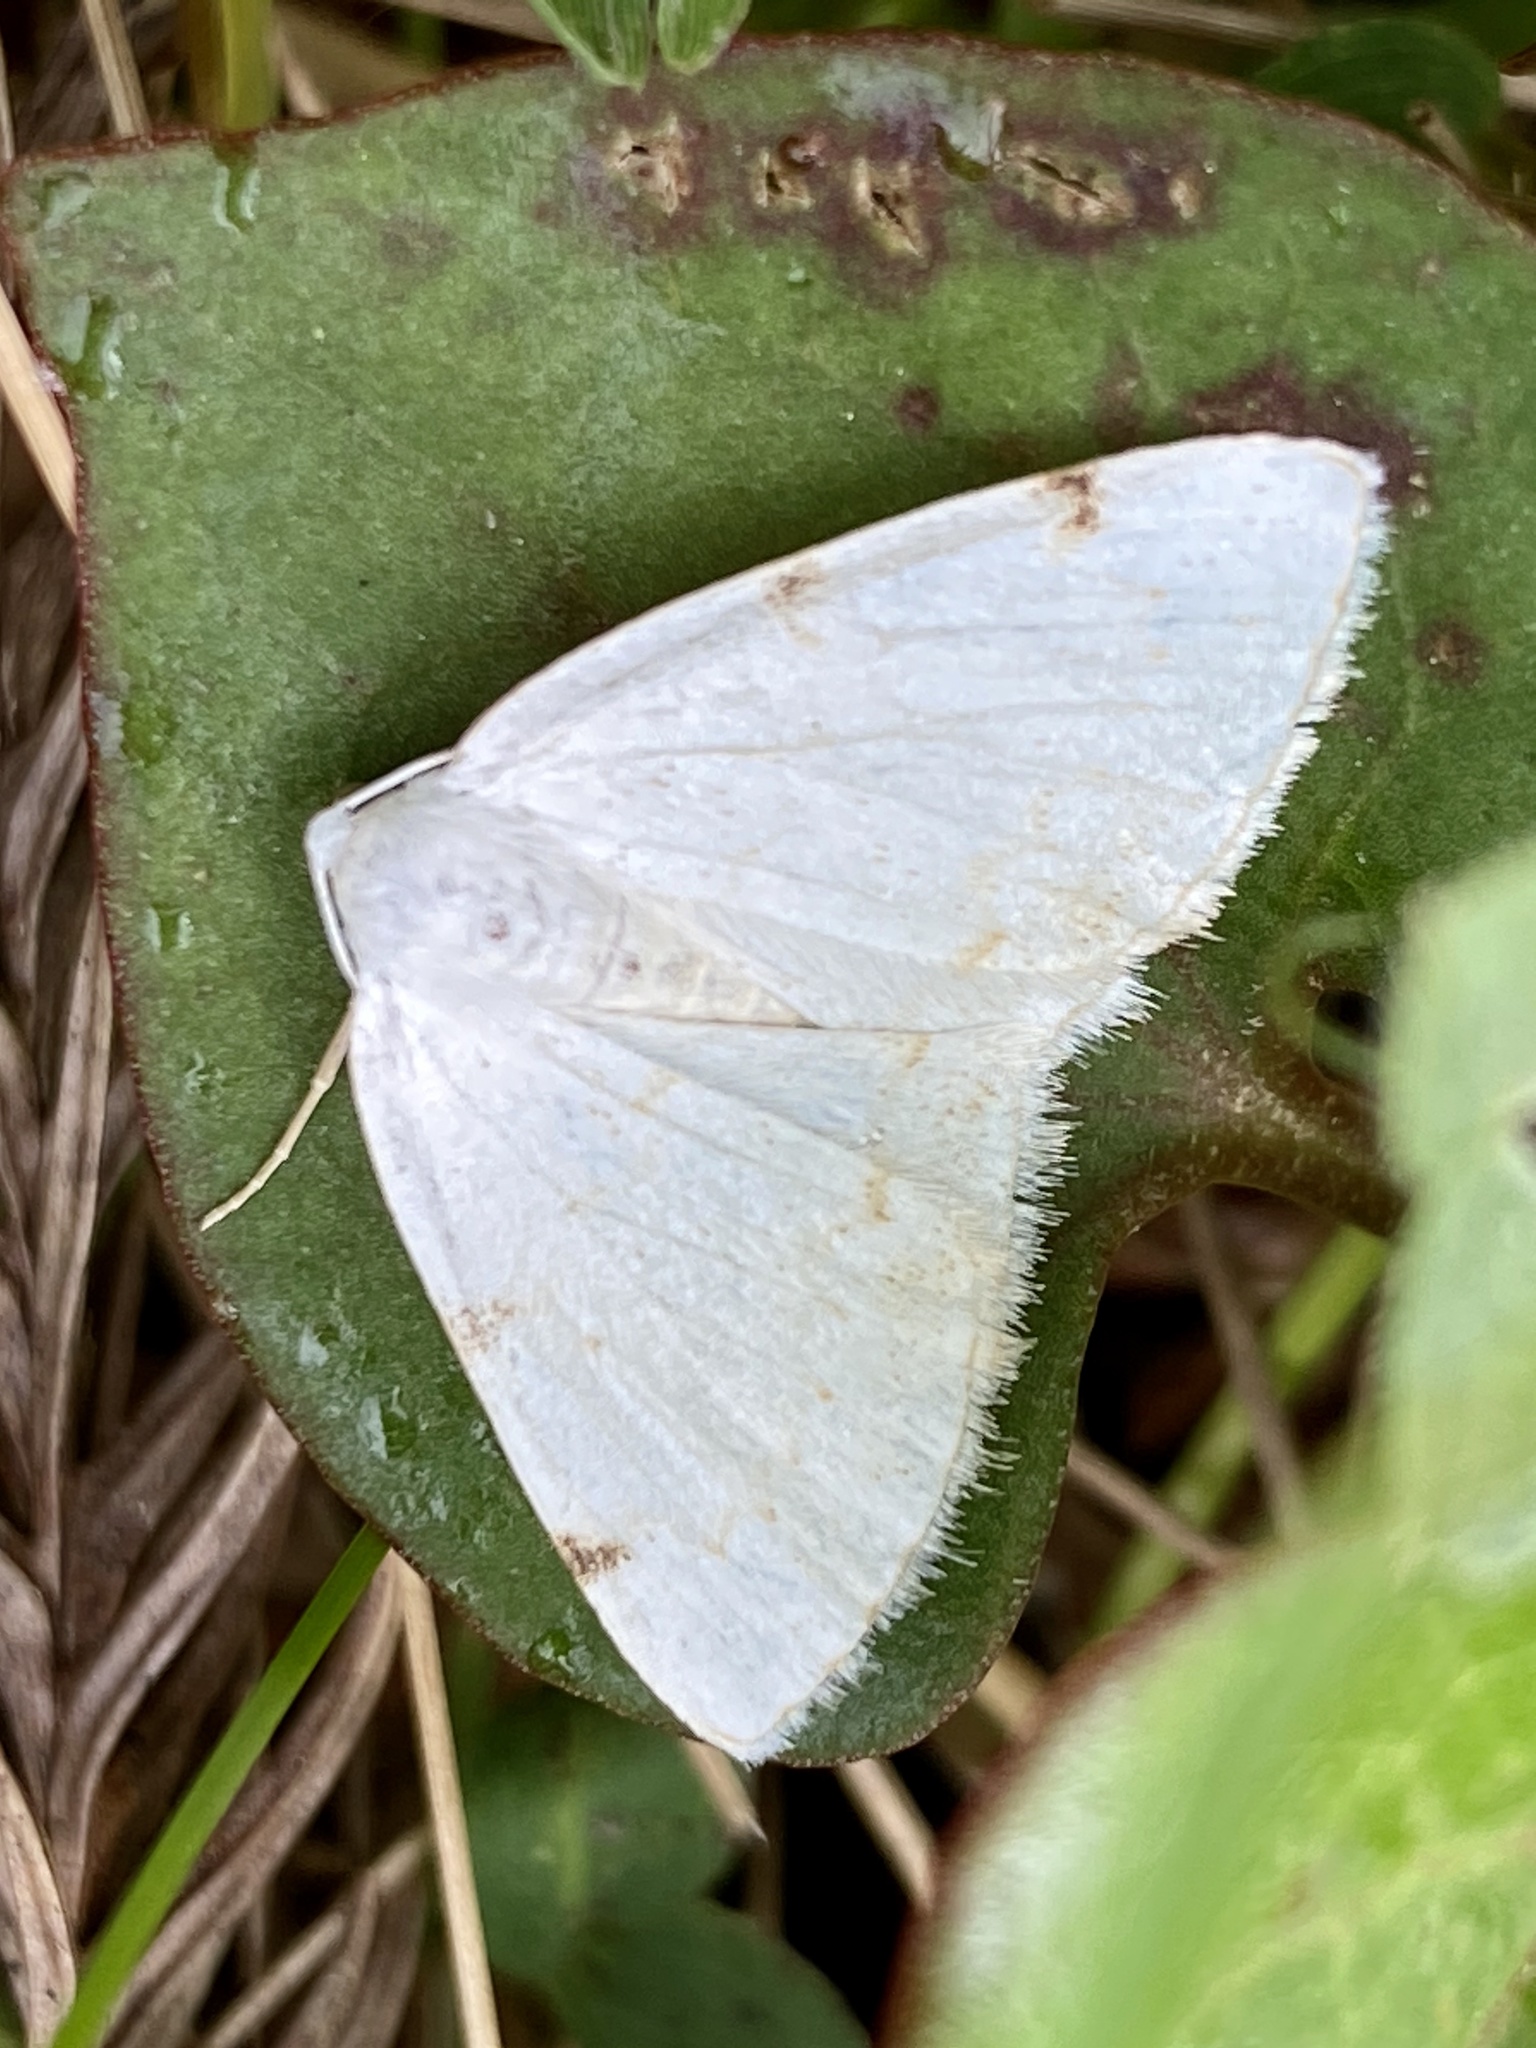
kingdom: Animalia
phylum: Arthropoda
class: Insecta
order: Lepidoptera
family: Geometridae
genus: Lomographa
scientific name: Lomographa bimaculata
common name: White-pinion spotted
